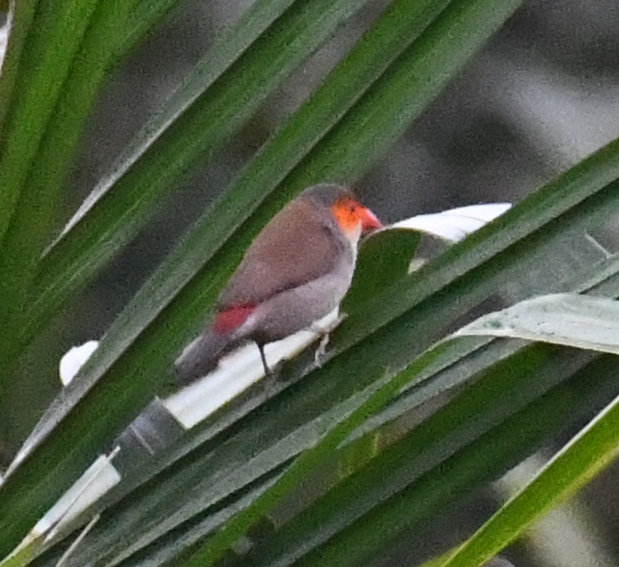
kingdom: Animalia
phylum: Chordata
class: Aves
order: Passeriformes
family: Estrildidae
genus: Estrilda
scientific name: Estrilda melpoda
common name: Orange-cheeked waxbill
